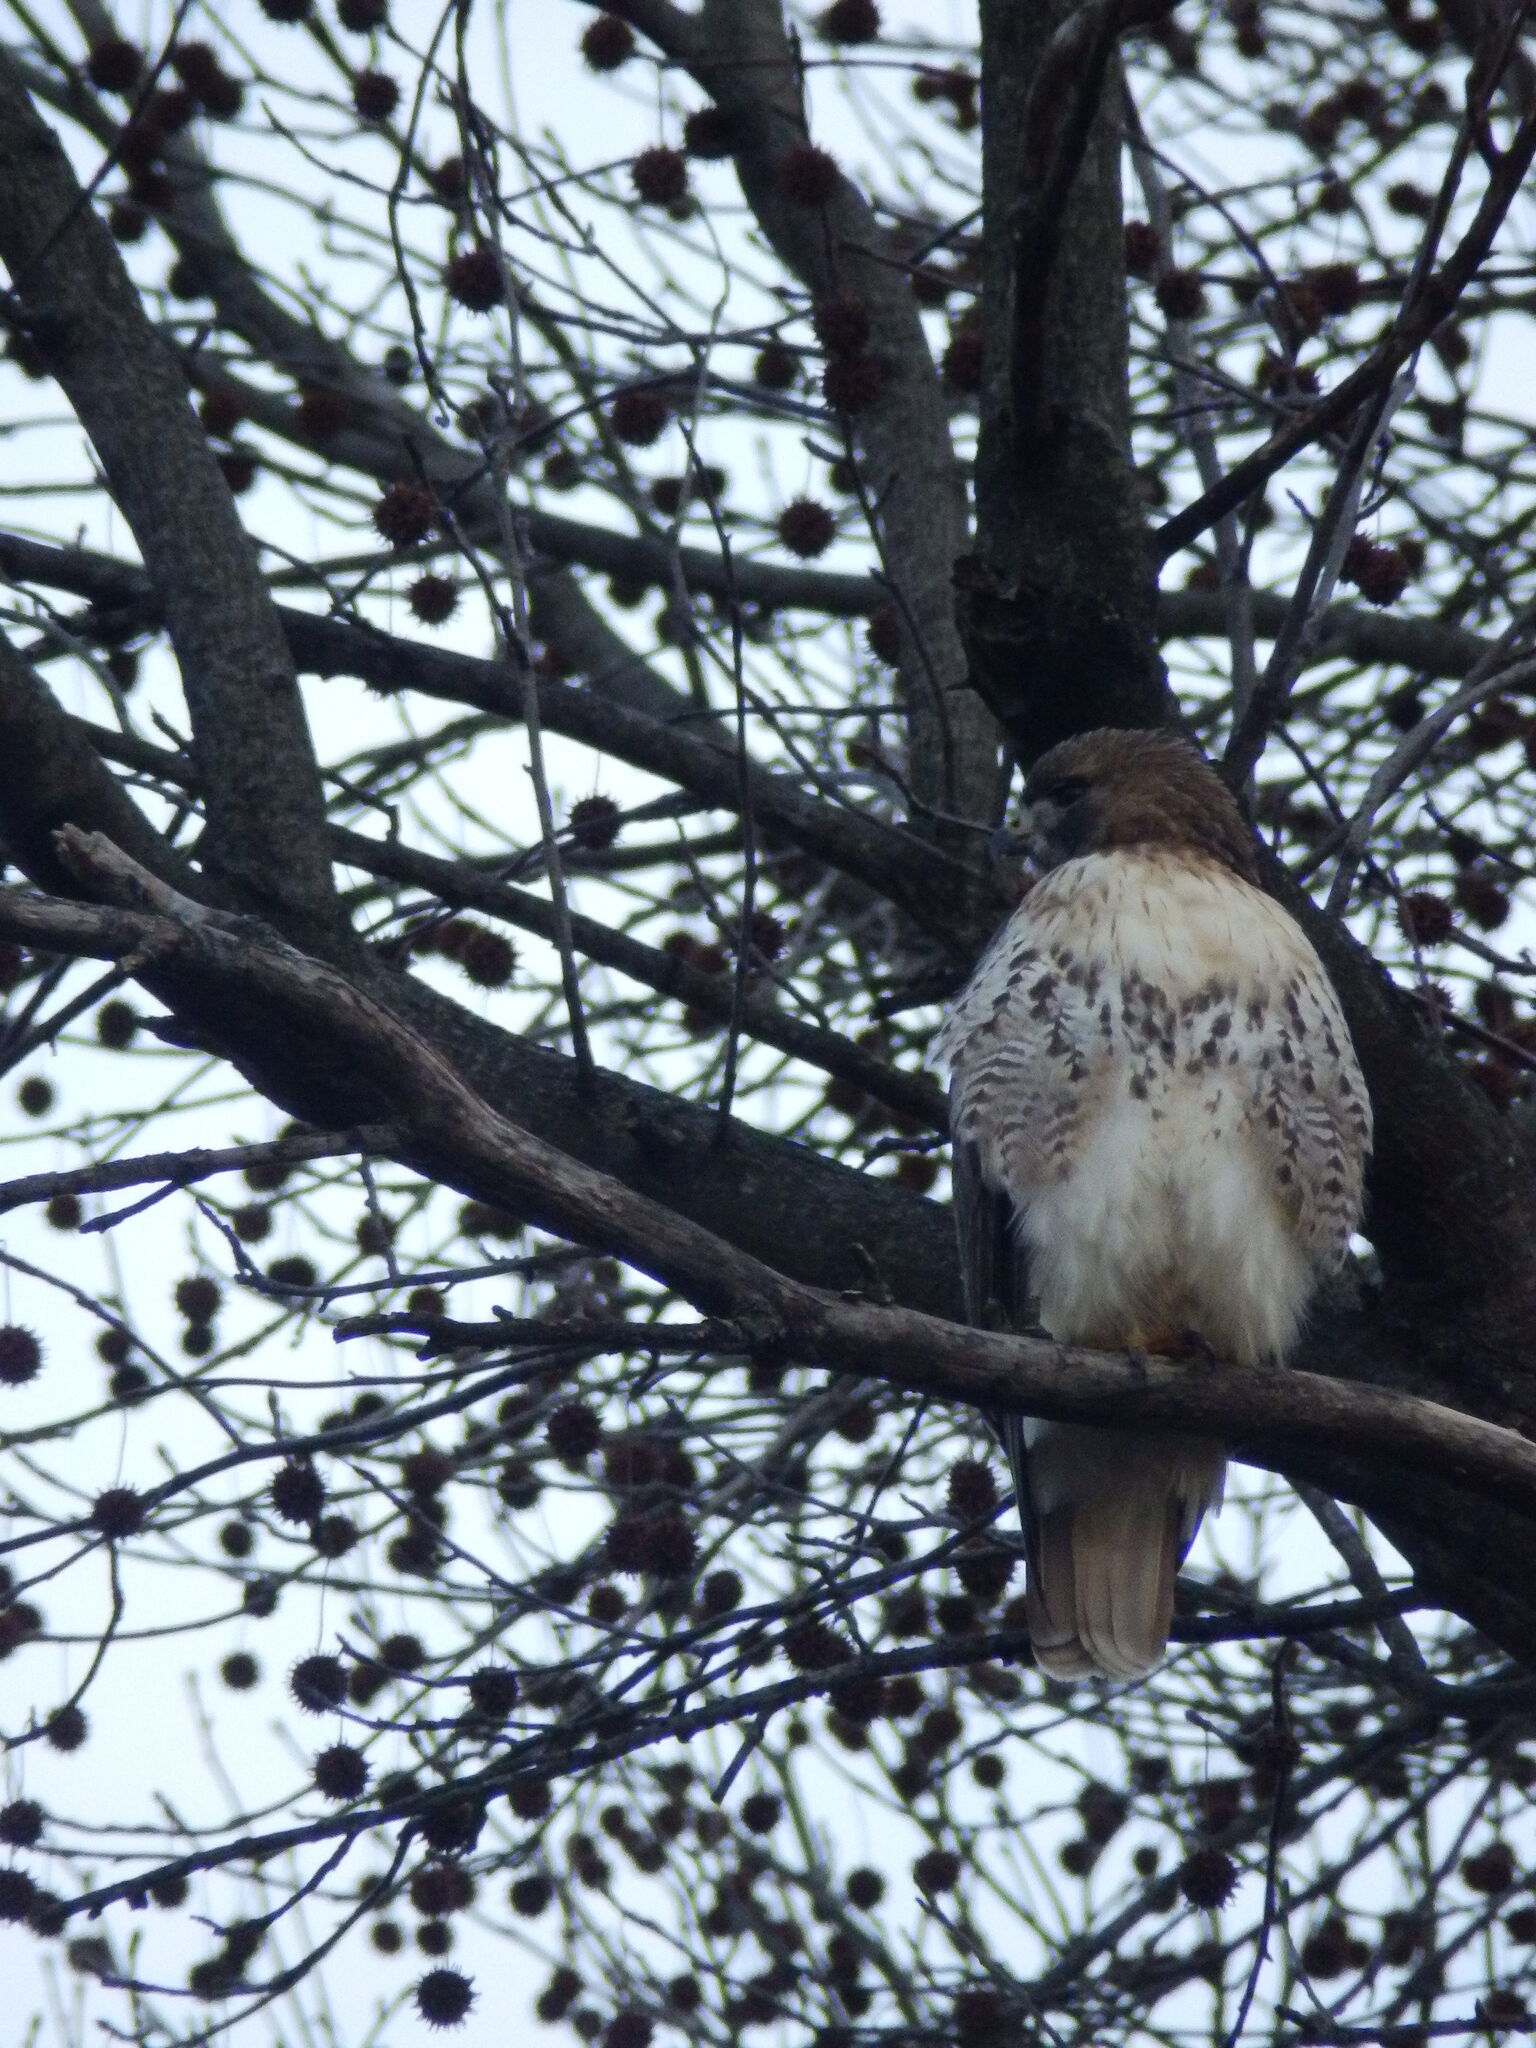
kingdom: Animalia
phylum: Chordata
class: Aves
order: Accipitriformes
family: Accipitridae
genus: Buteo
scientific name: Buteo jamaicensis
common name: Red-tailed hawk
